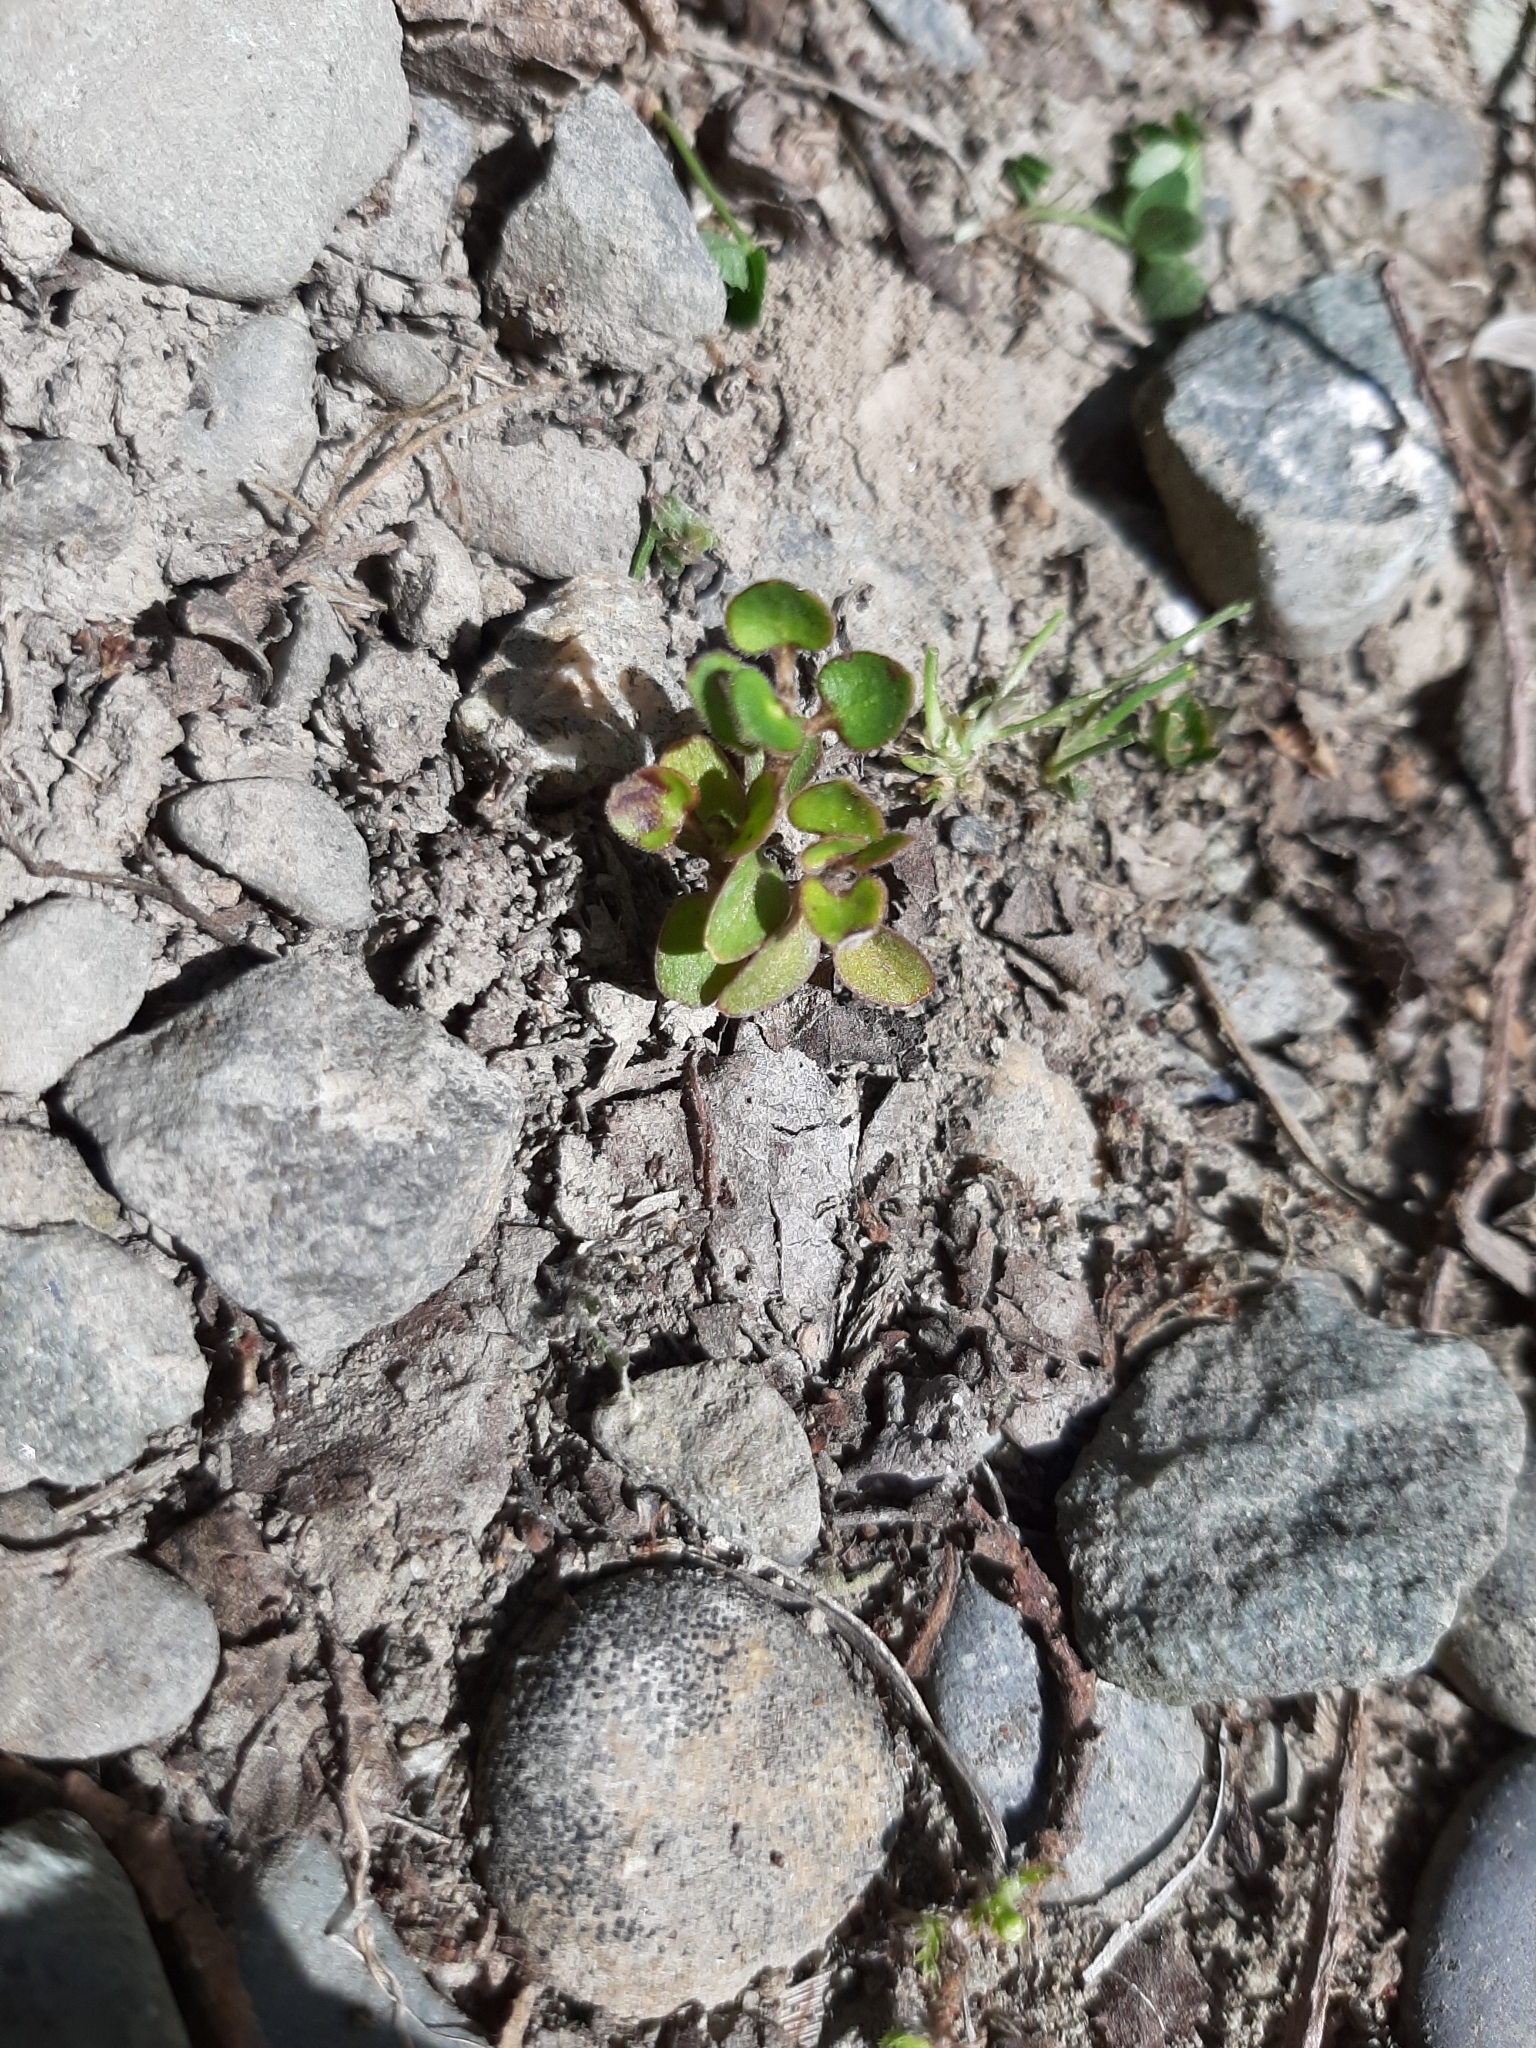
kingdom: Plantae
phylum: Tracheophyta
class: Magnoliopsida
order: Gentianales
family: Rubiaceae
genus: Coprosma
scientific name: Coprosma crassifolia
